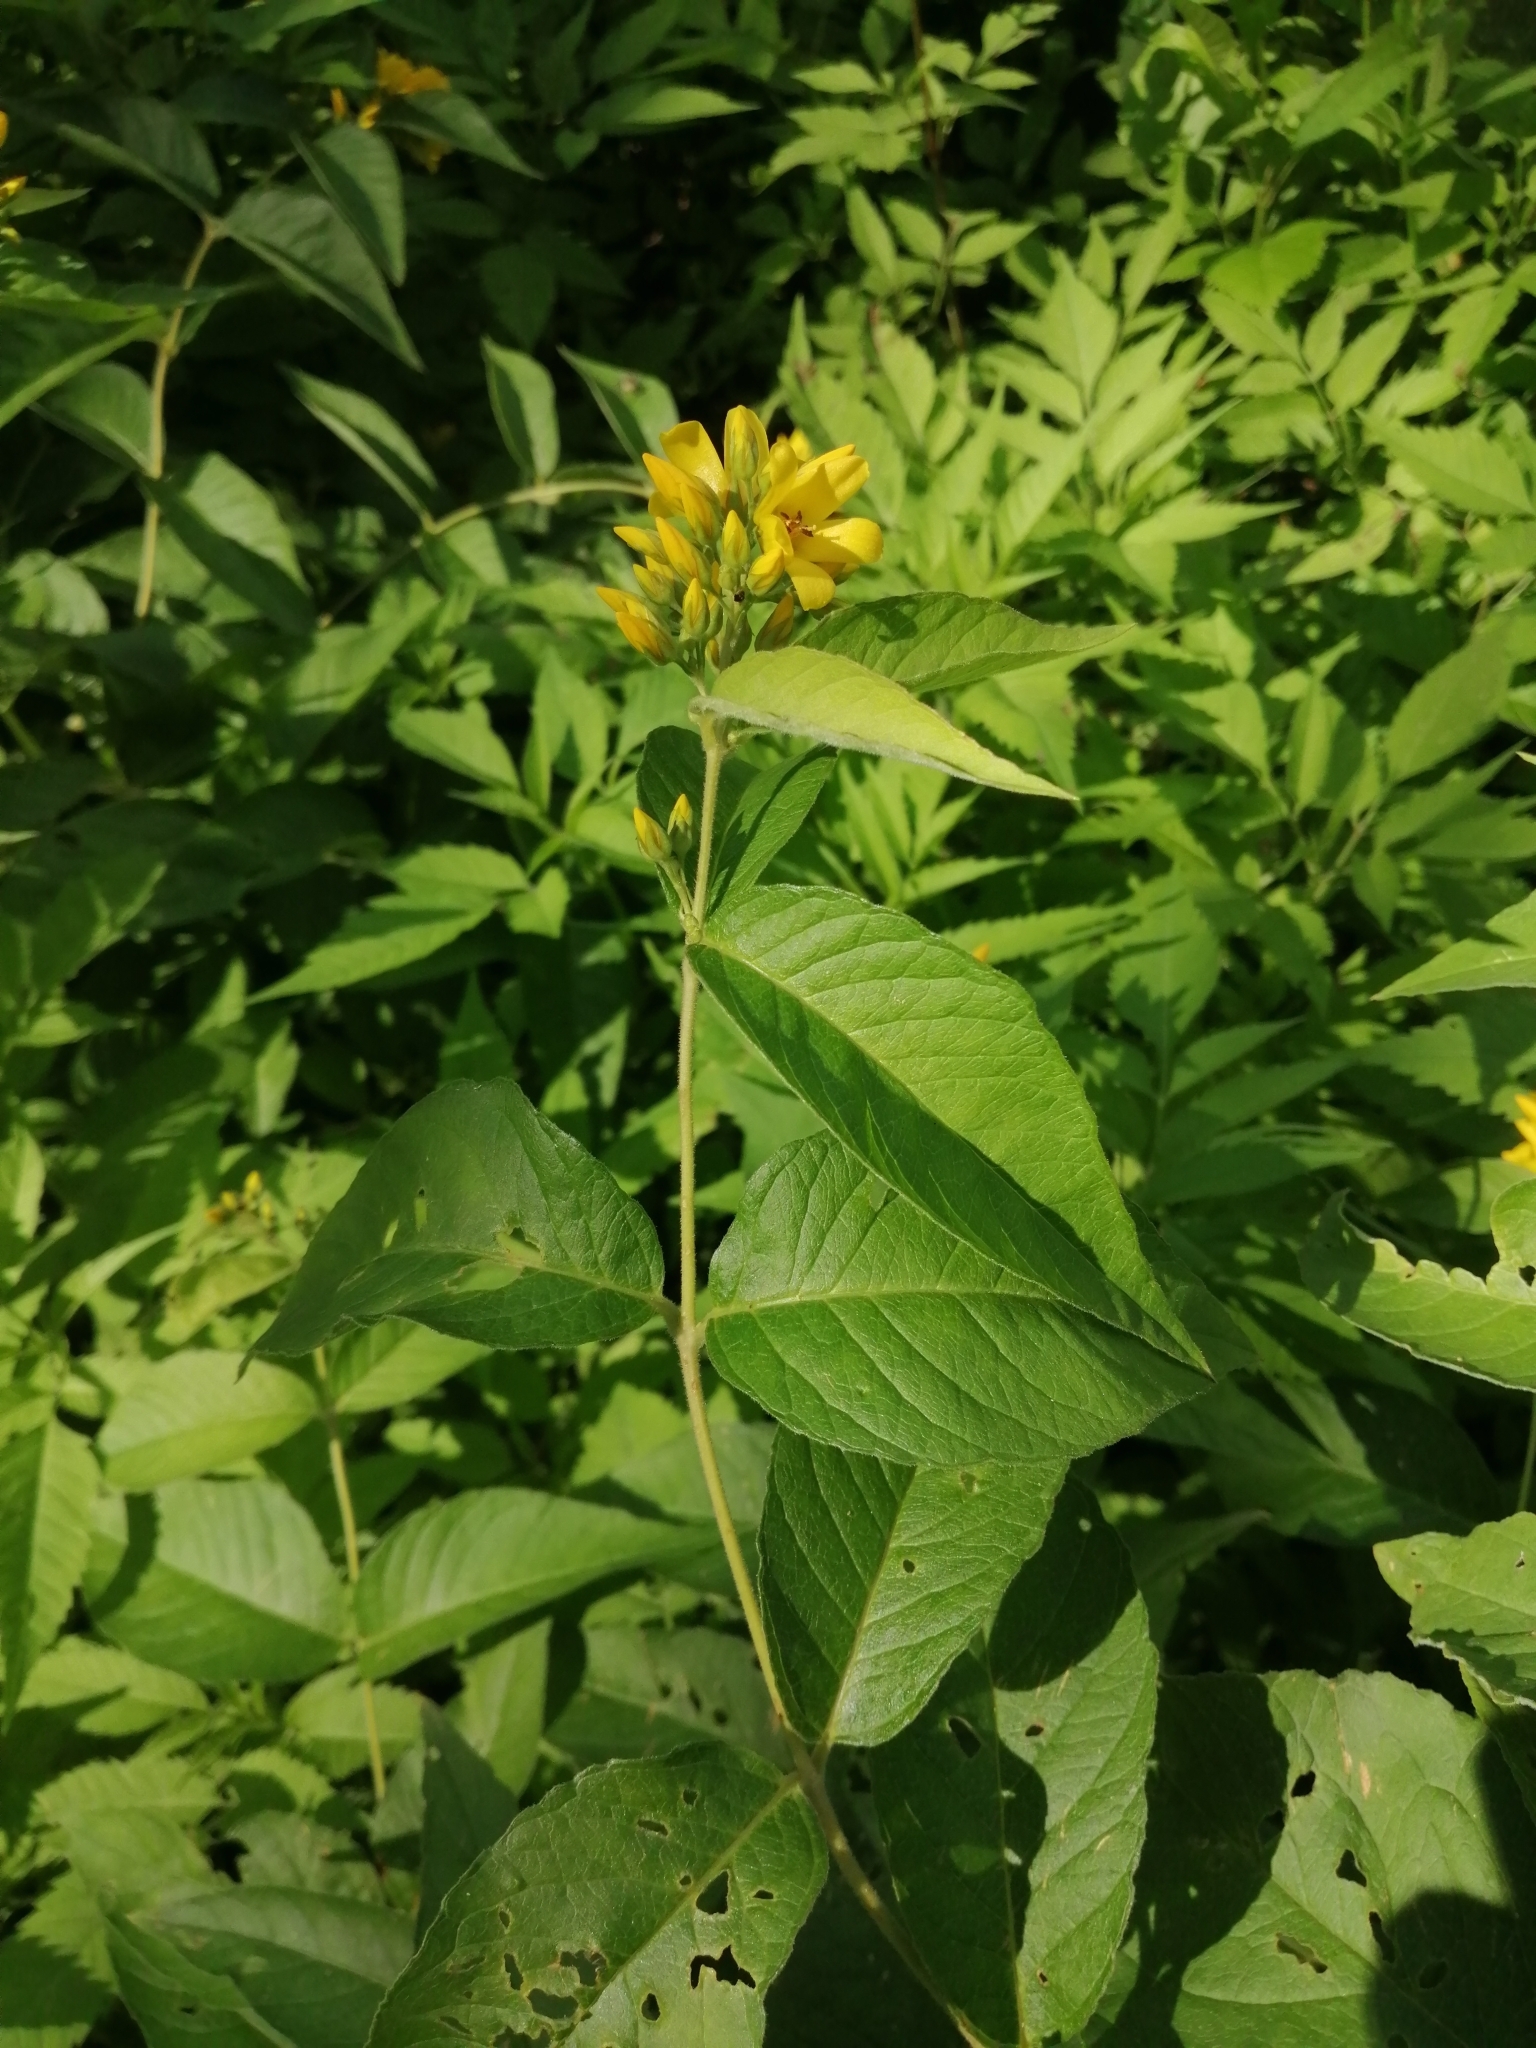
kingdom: Plantae
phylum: Tracheophyta
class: Magnoliopsida
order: Ericales
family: Primulaceae
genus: Lysimachia
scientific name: Lysimachia vulgaris
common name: Yellow loosestrife
